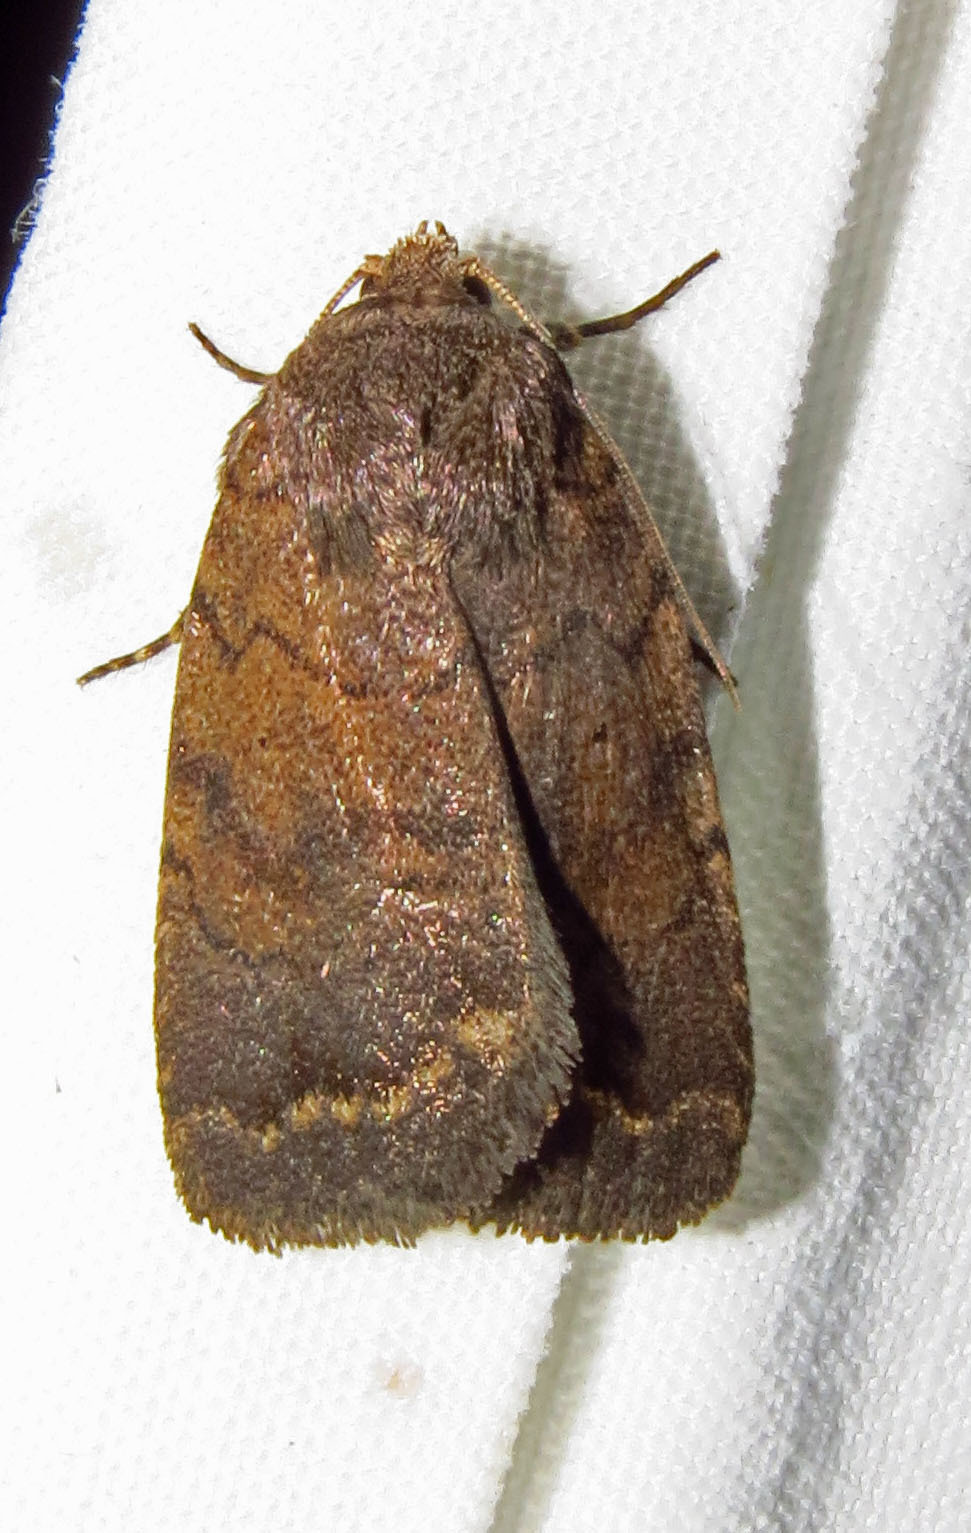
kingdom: Animalia
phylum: Arthropoda
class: Insecta
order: Lepidoptera
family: Noctuidae
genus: Athetis
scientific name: Athetis tarda
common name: Slowpoke moth
